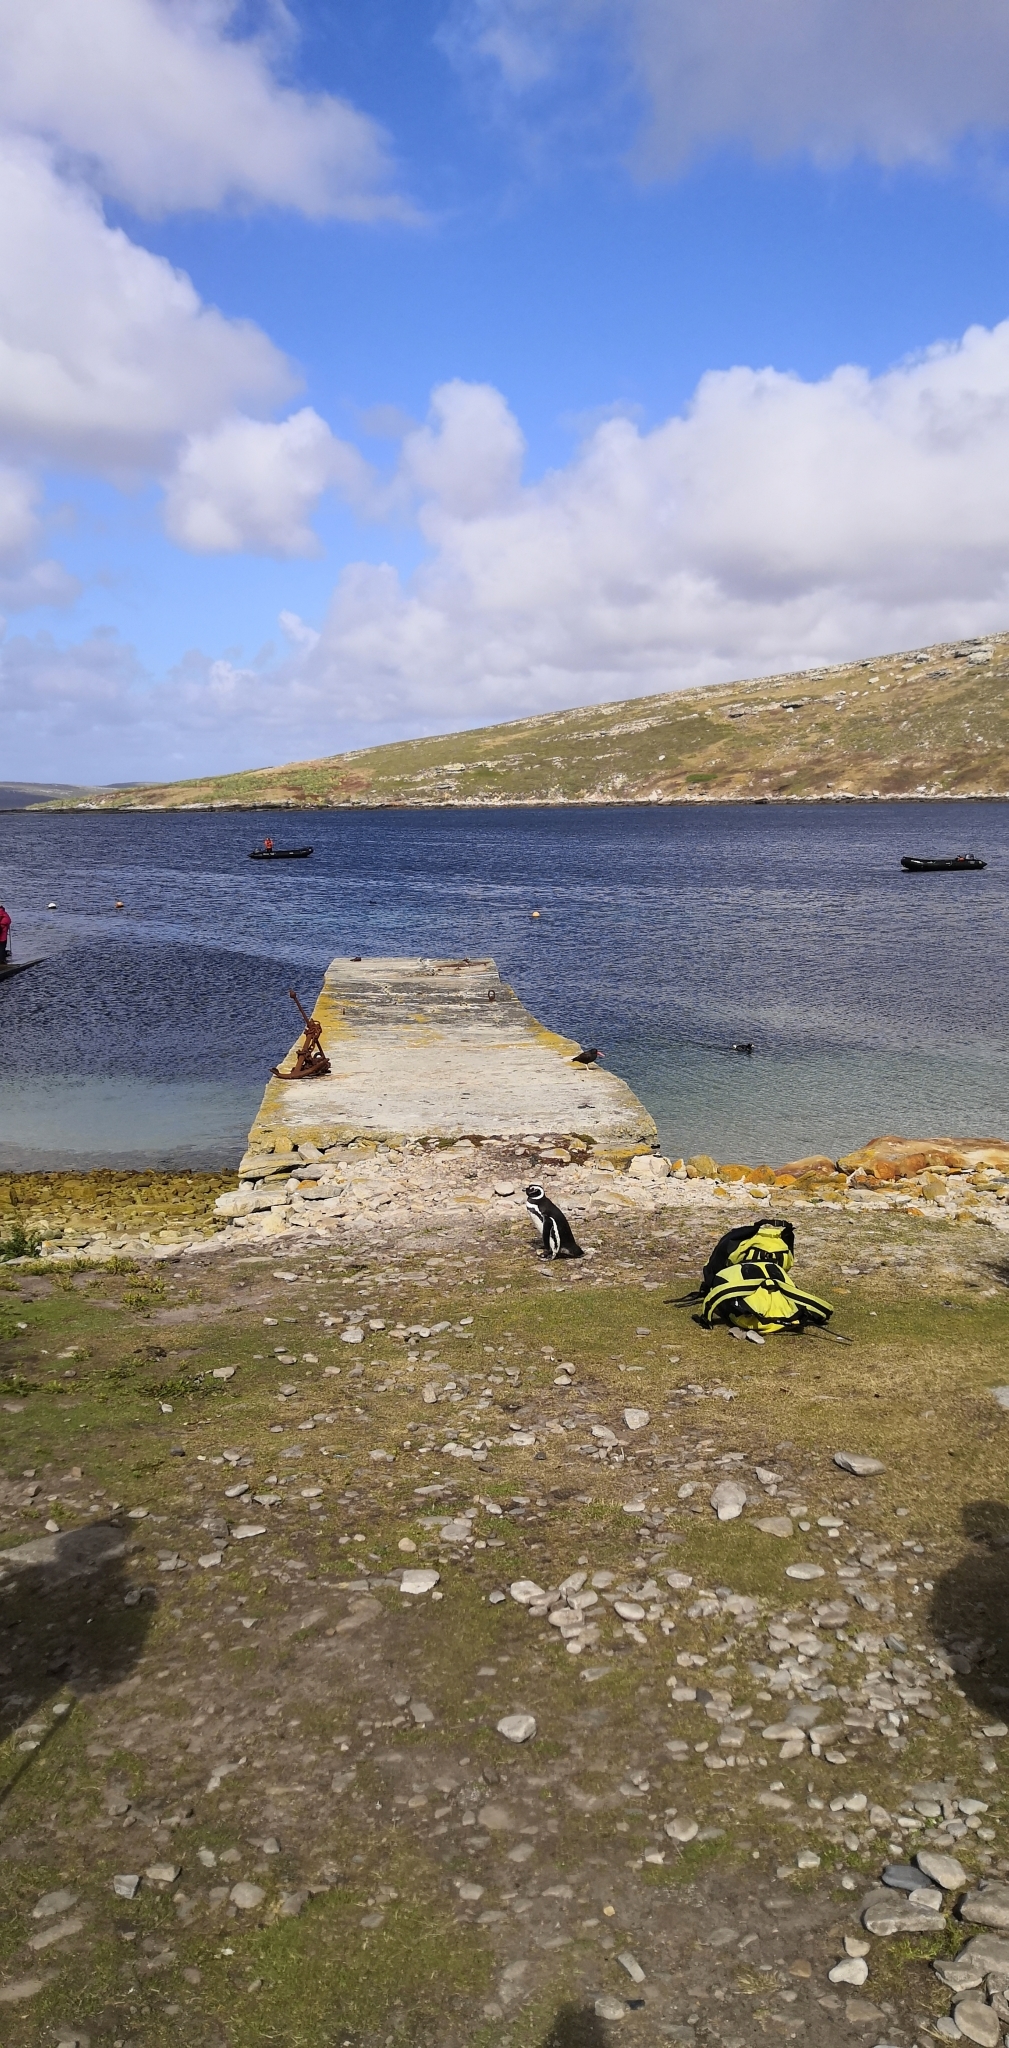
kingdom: Animalia
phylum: Chordata
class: Aves
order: Sphenisciformes
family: Spheniscidae
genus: Spheniscus
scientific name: Spheniscus magellanicus
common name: Magellanic penguin
